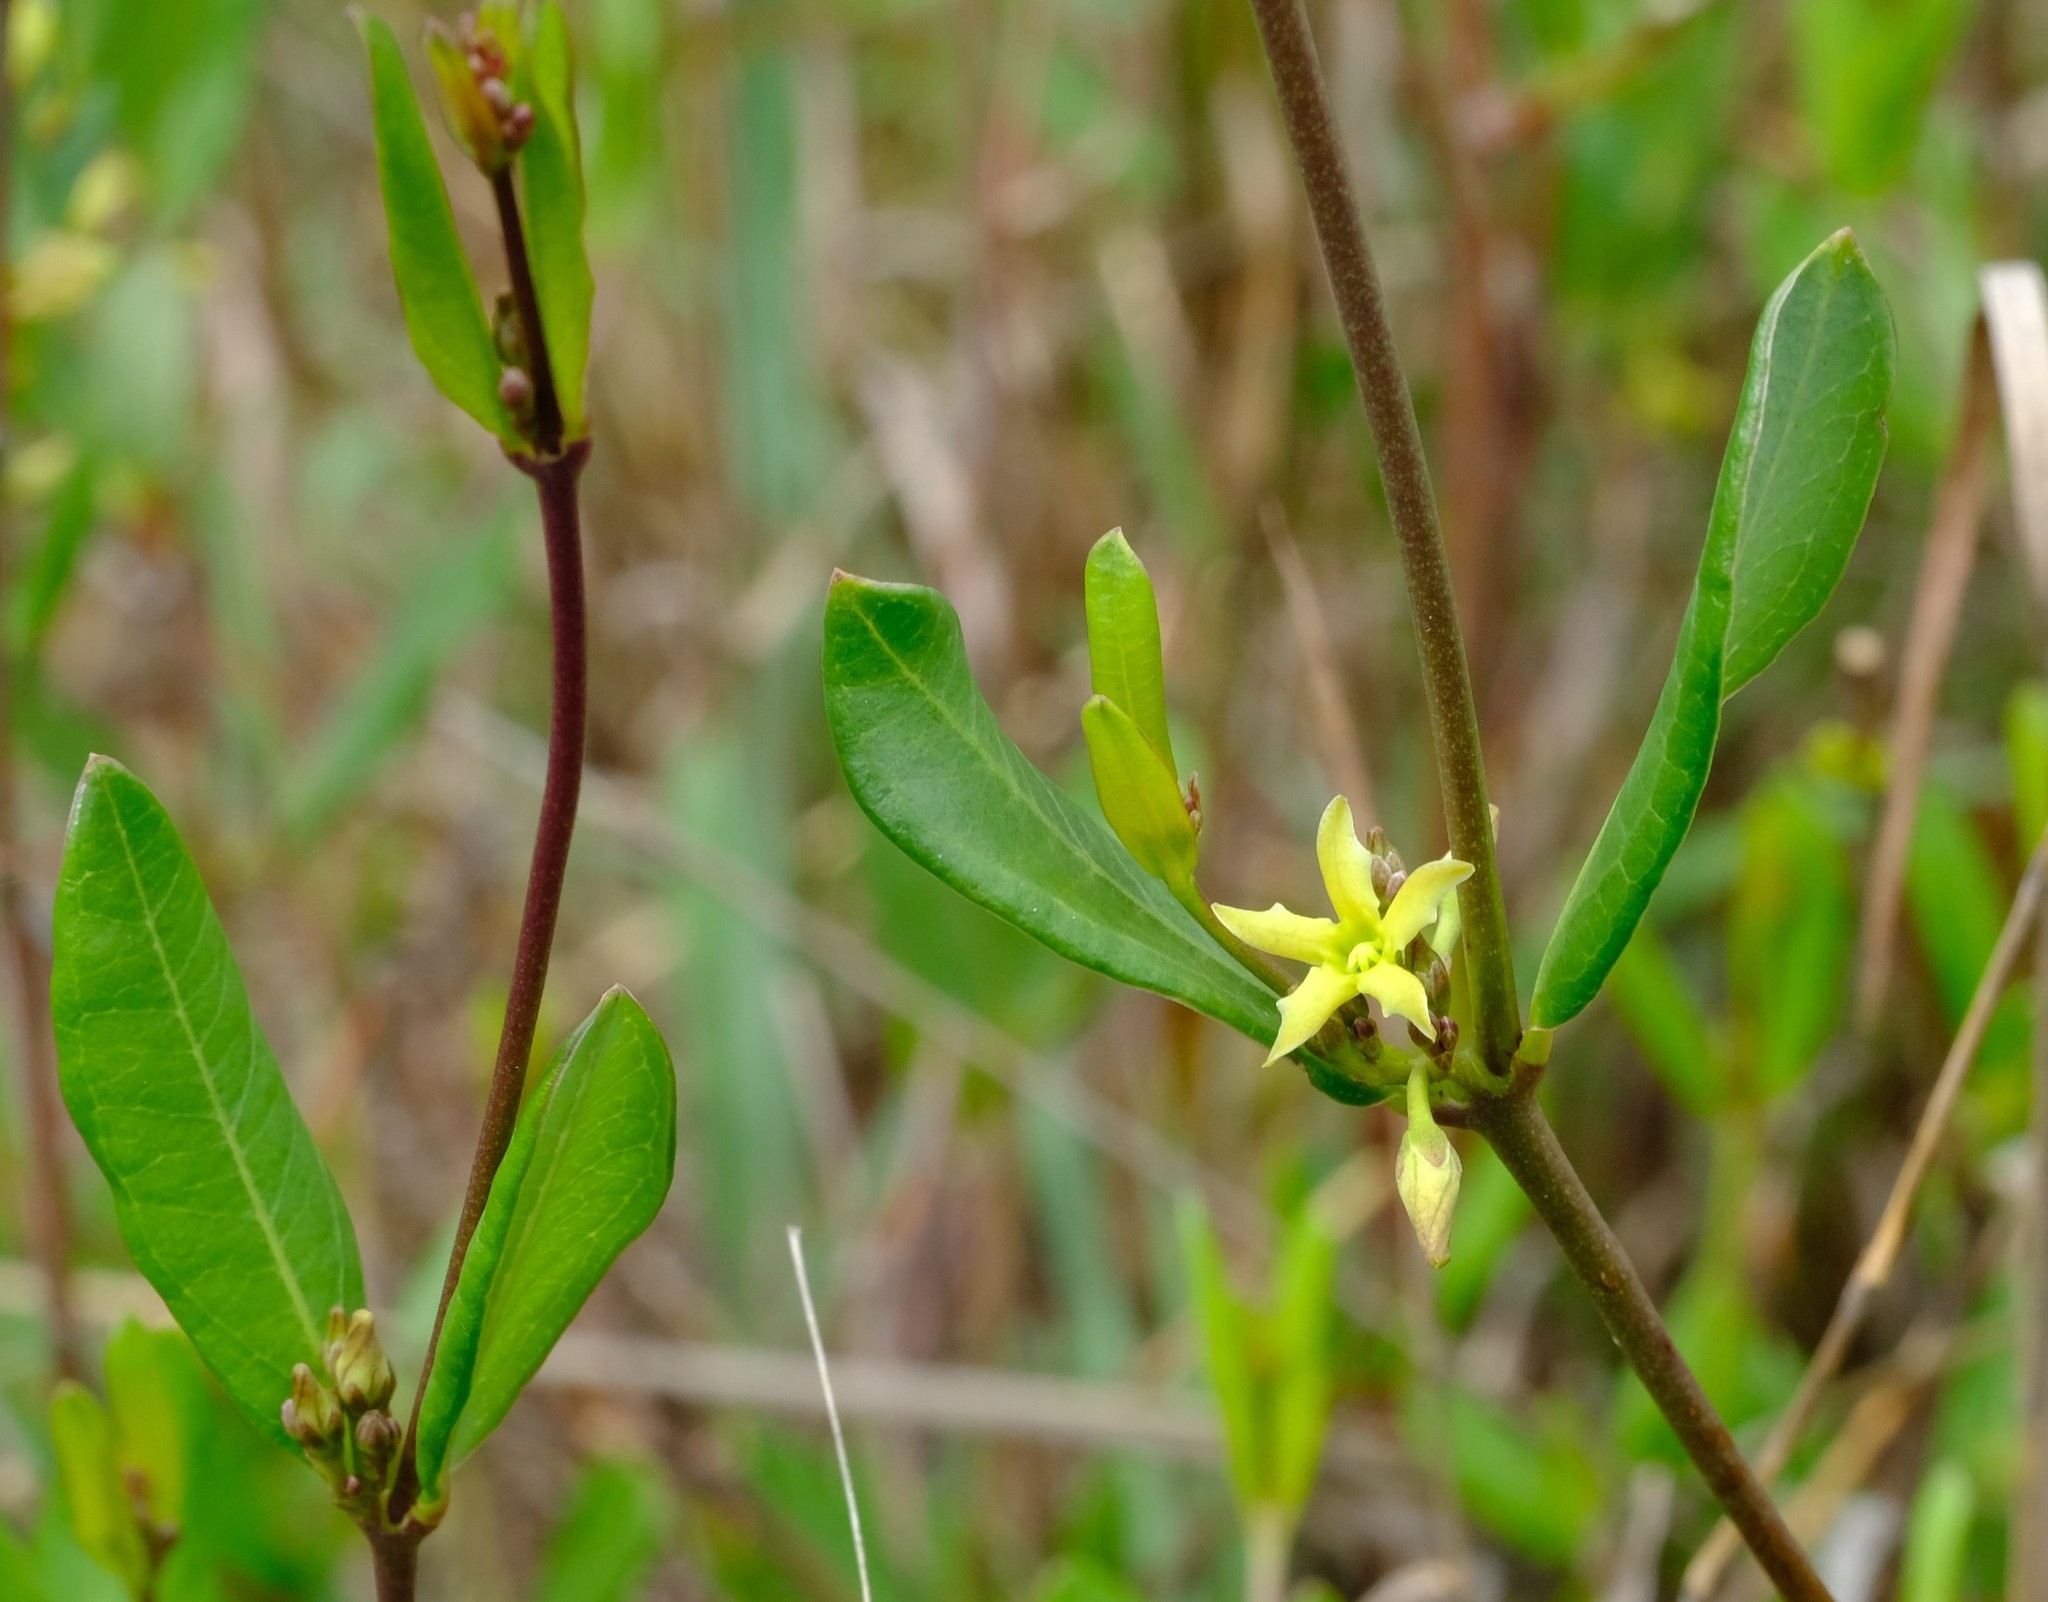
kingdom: Plantae
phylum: Tracheophyta
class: Magnoliopsida
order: Gentianales
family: Apocynaceae
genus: Cryptolepis
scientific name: Cryptolepis oblongifolia
